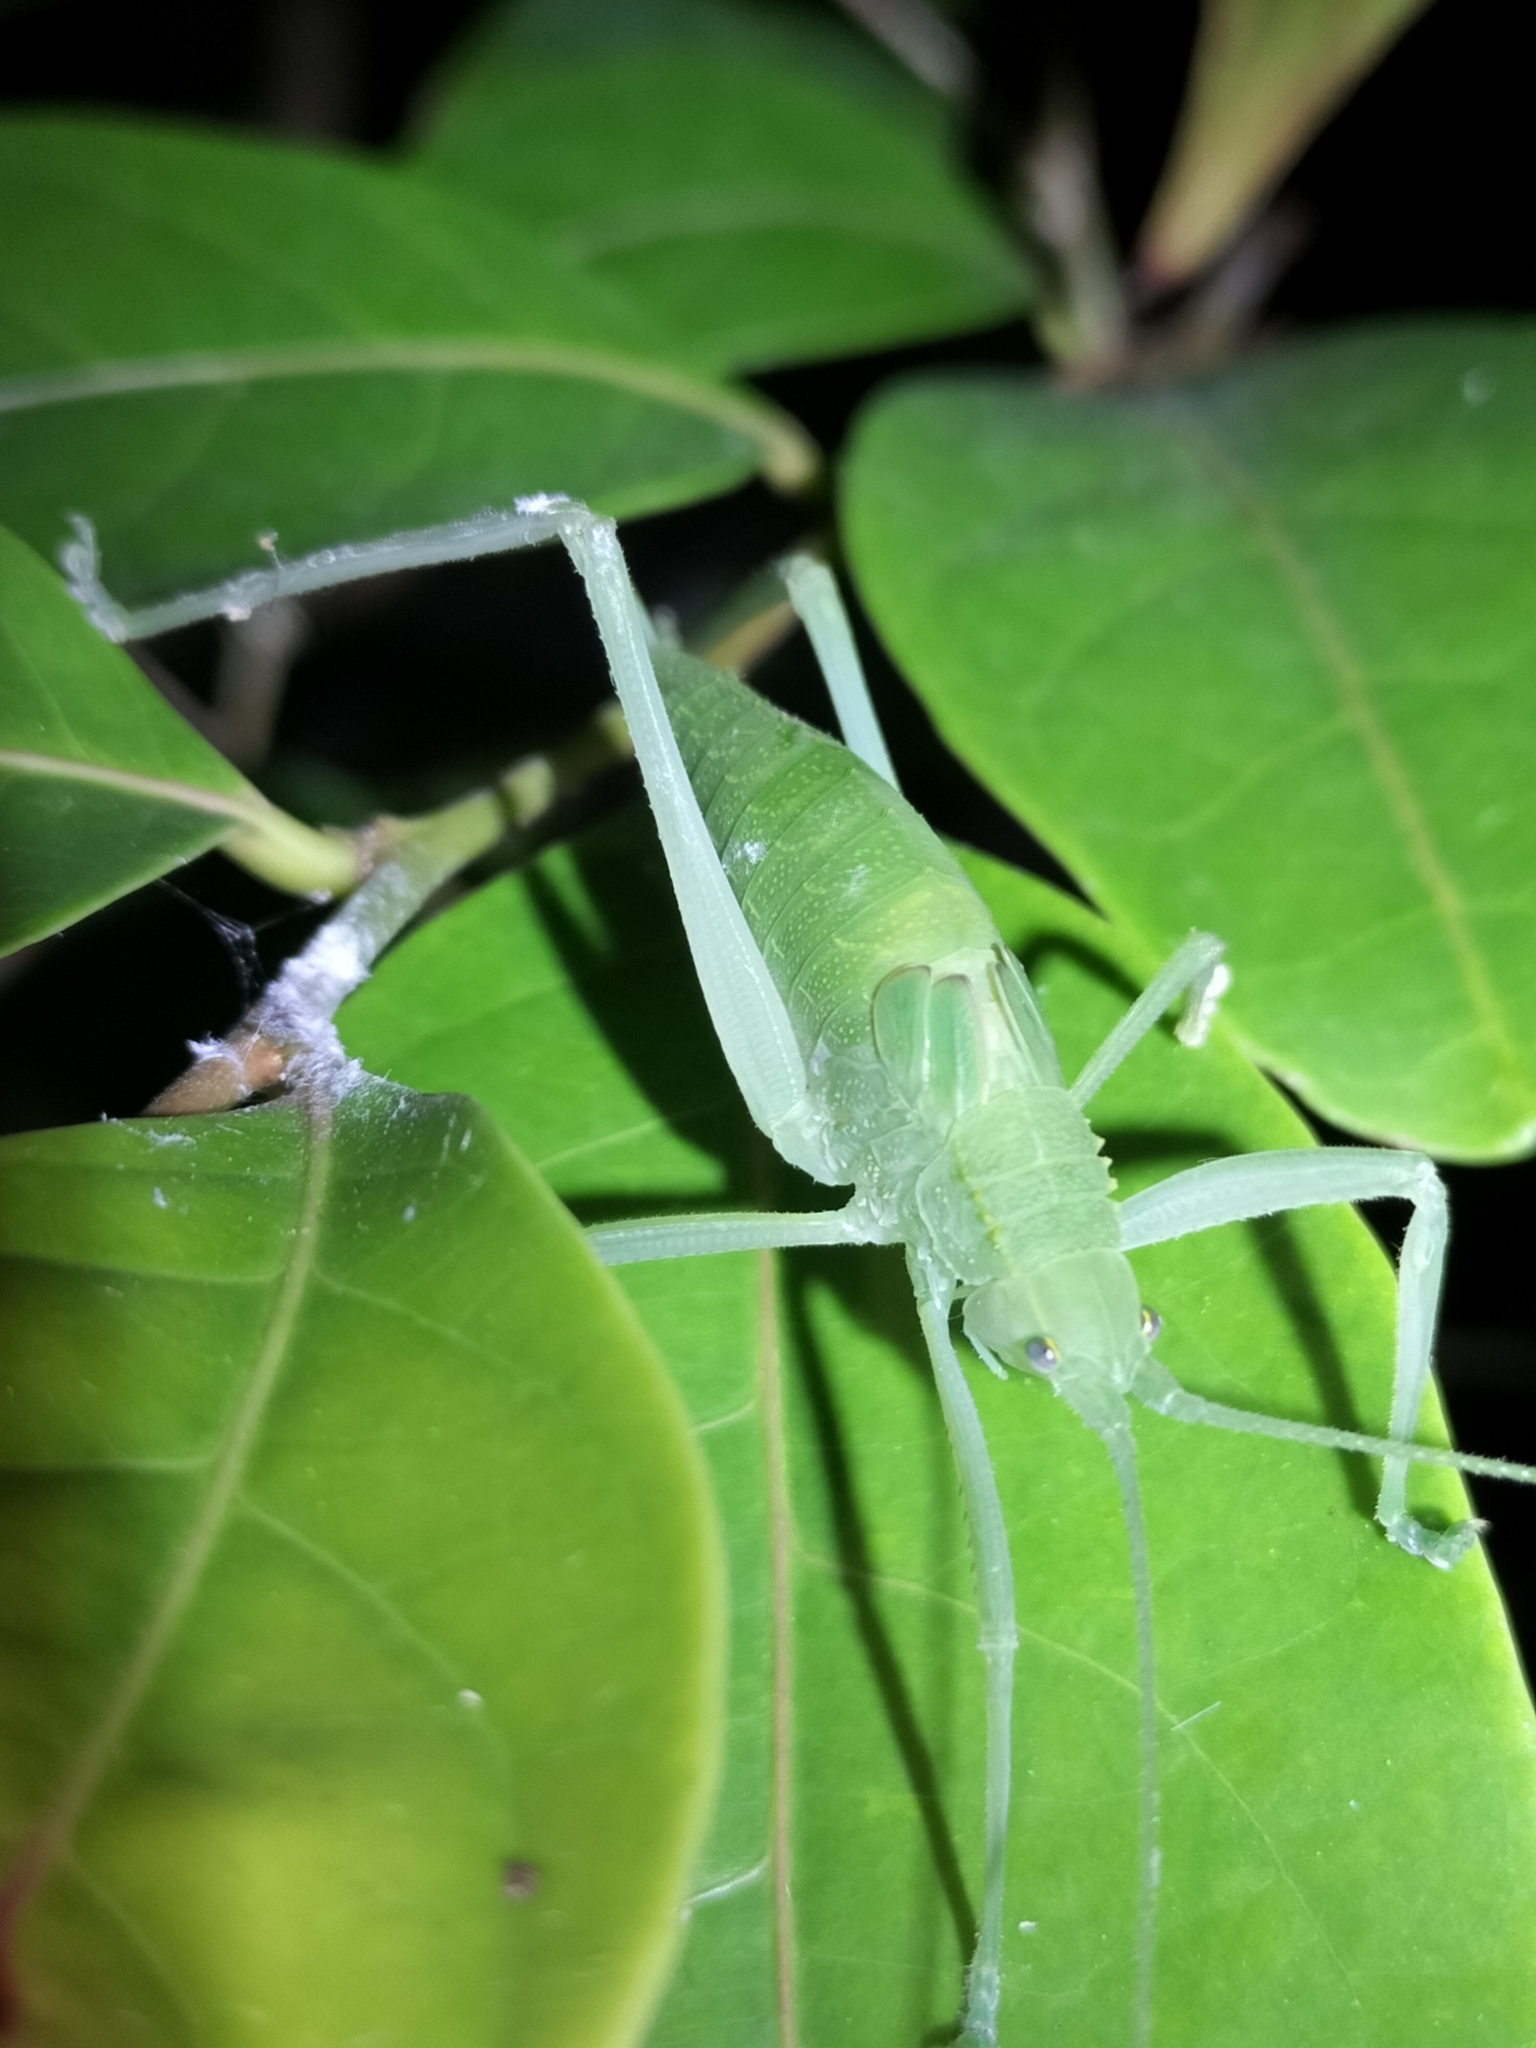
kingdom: Animalia
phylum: Arthropoda
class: Insecta
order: Orthoptera
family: Tettigoniidae
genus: Mastighaphoides
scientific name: Mastighaphoides tuberculatus
